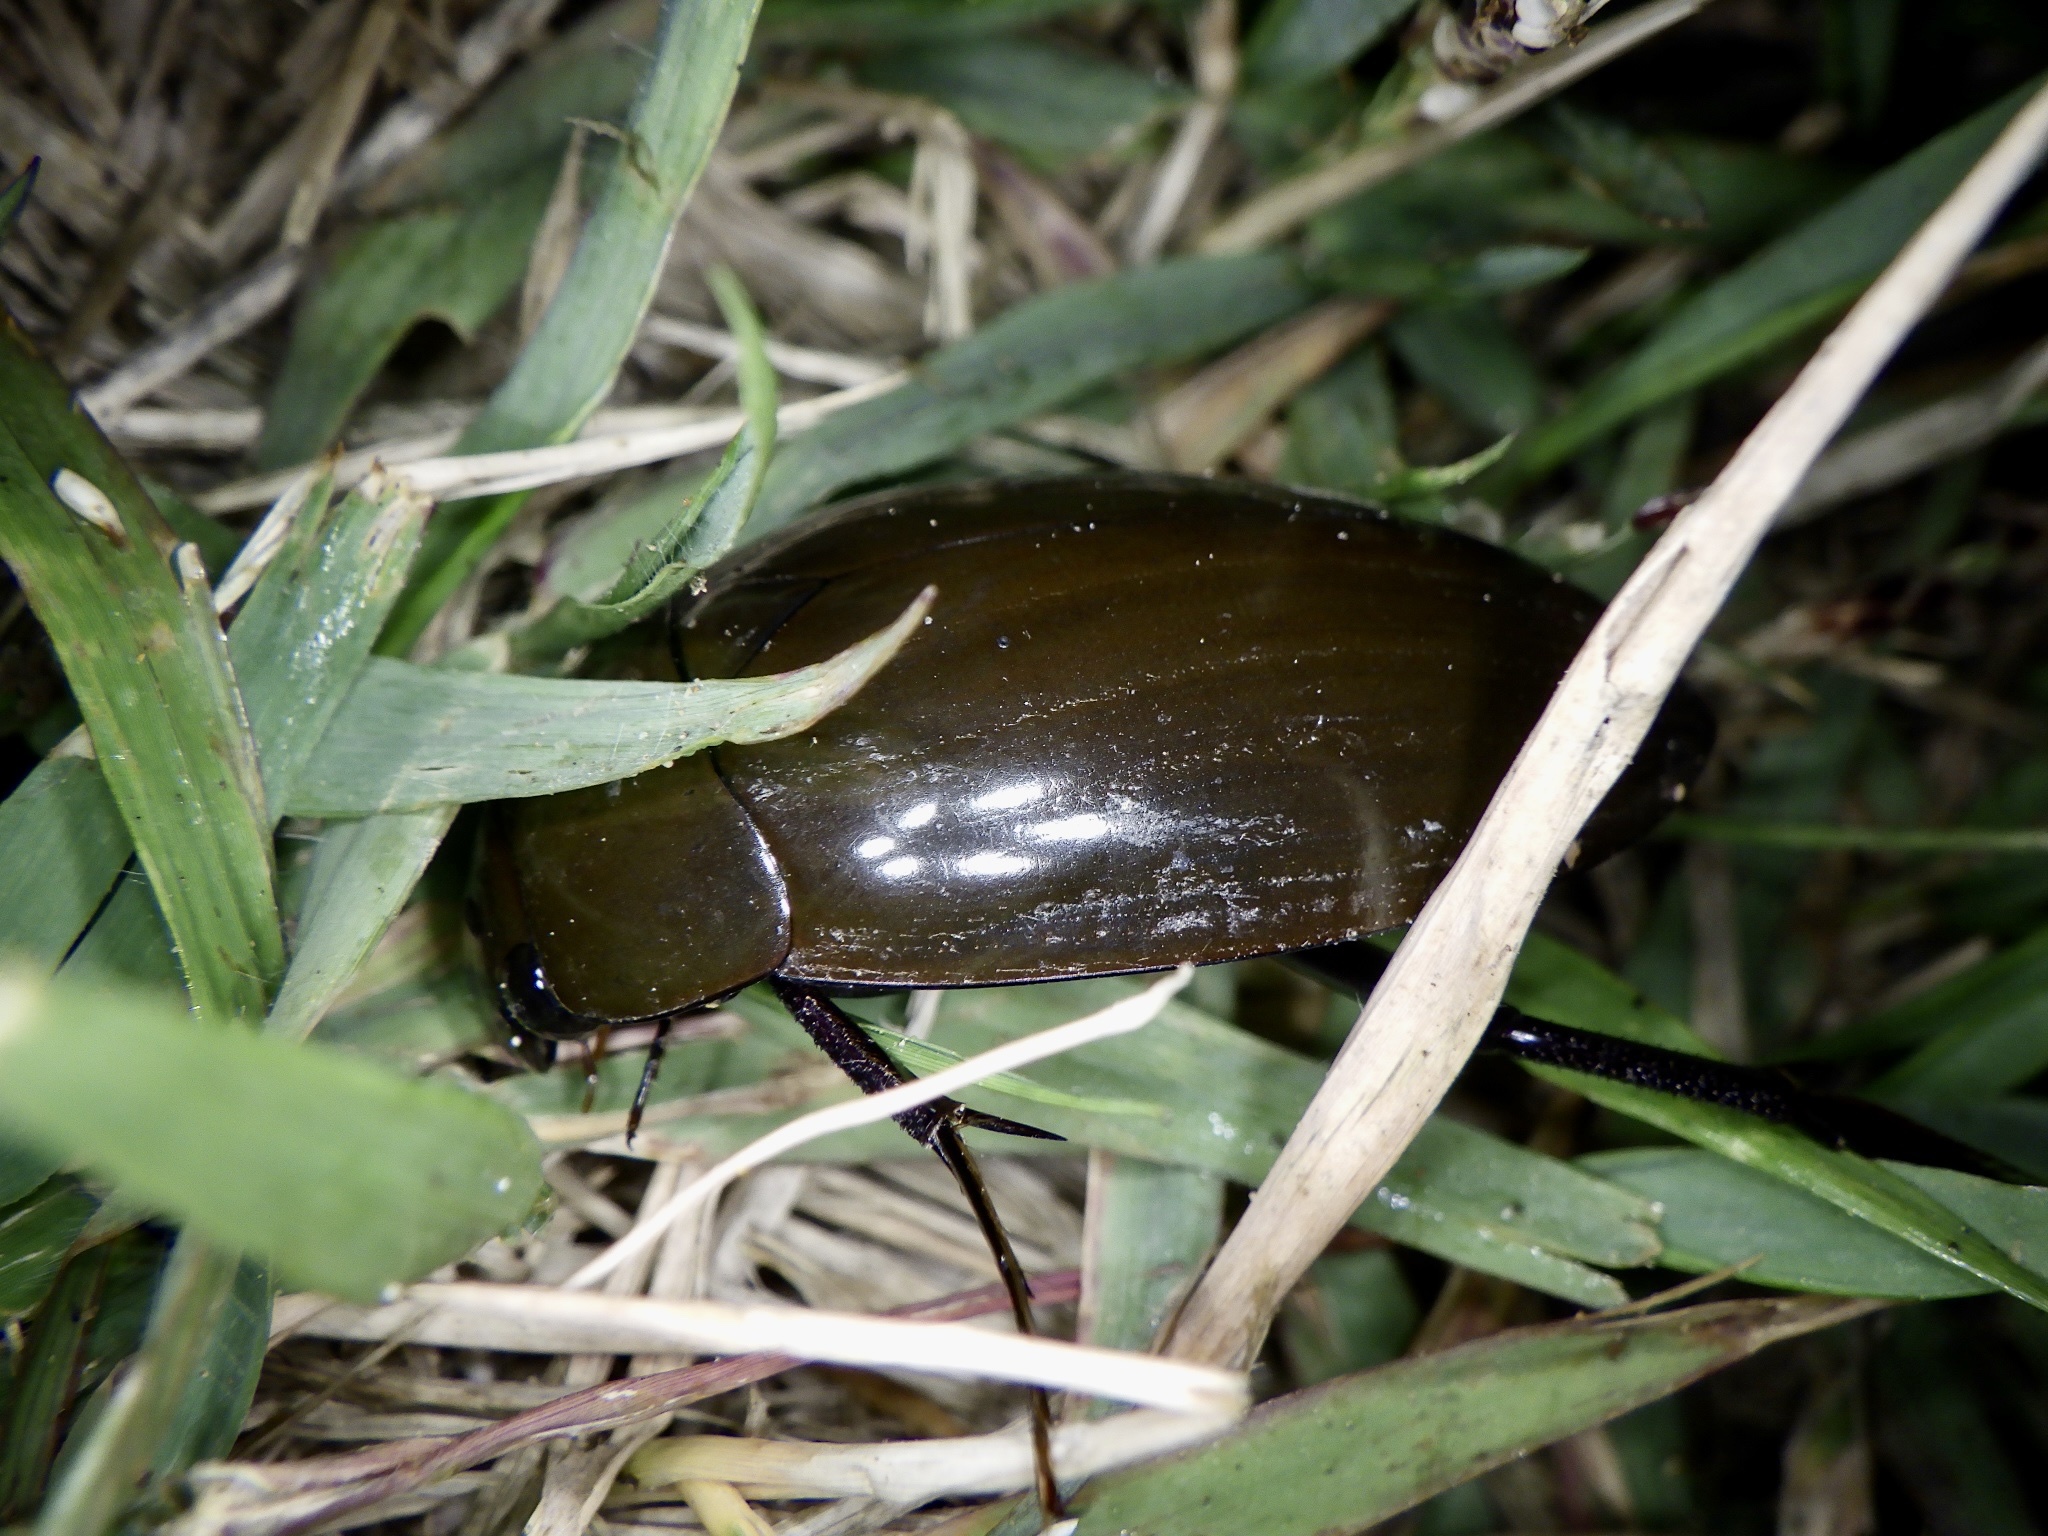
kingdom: Animalia
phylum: Arthropoda
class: Insecta
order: Coleoptera
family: Hydrophilidae
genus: Hydrophilus
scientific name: Hydrophilus acuminatus
